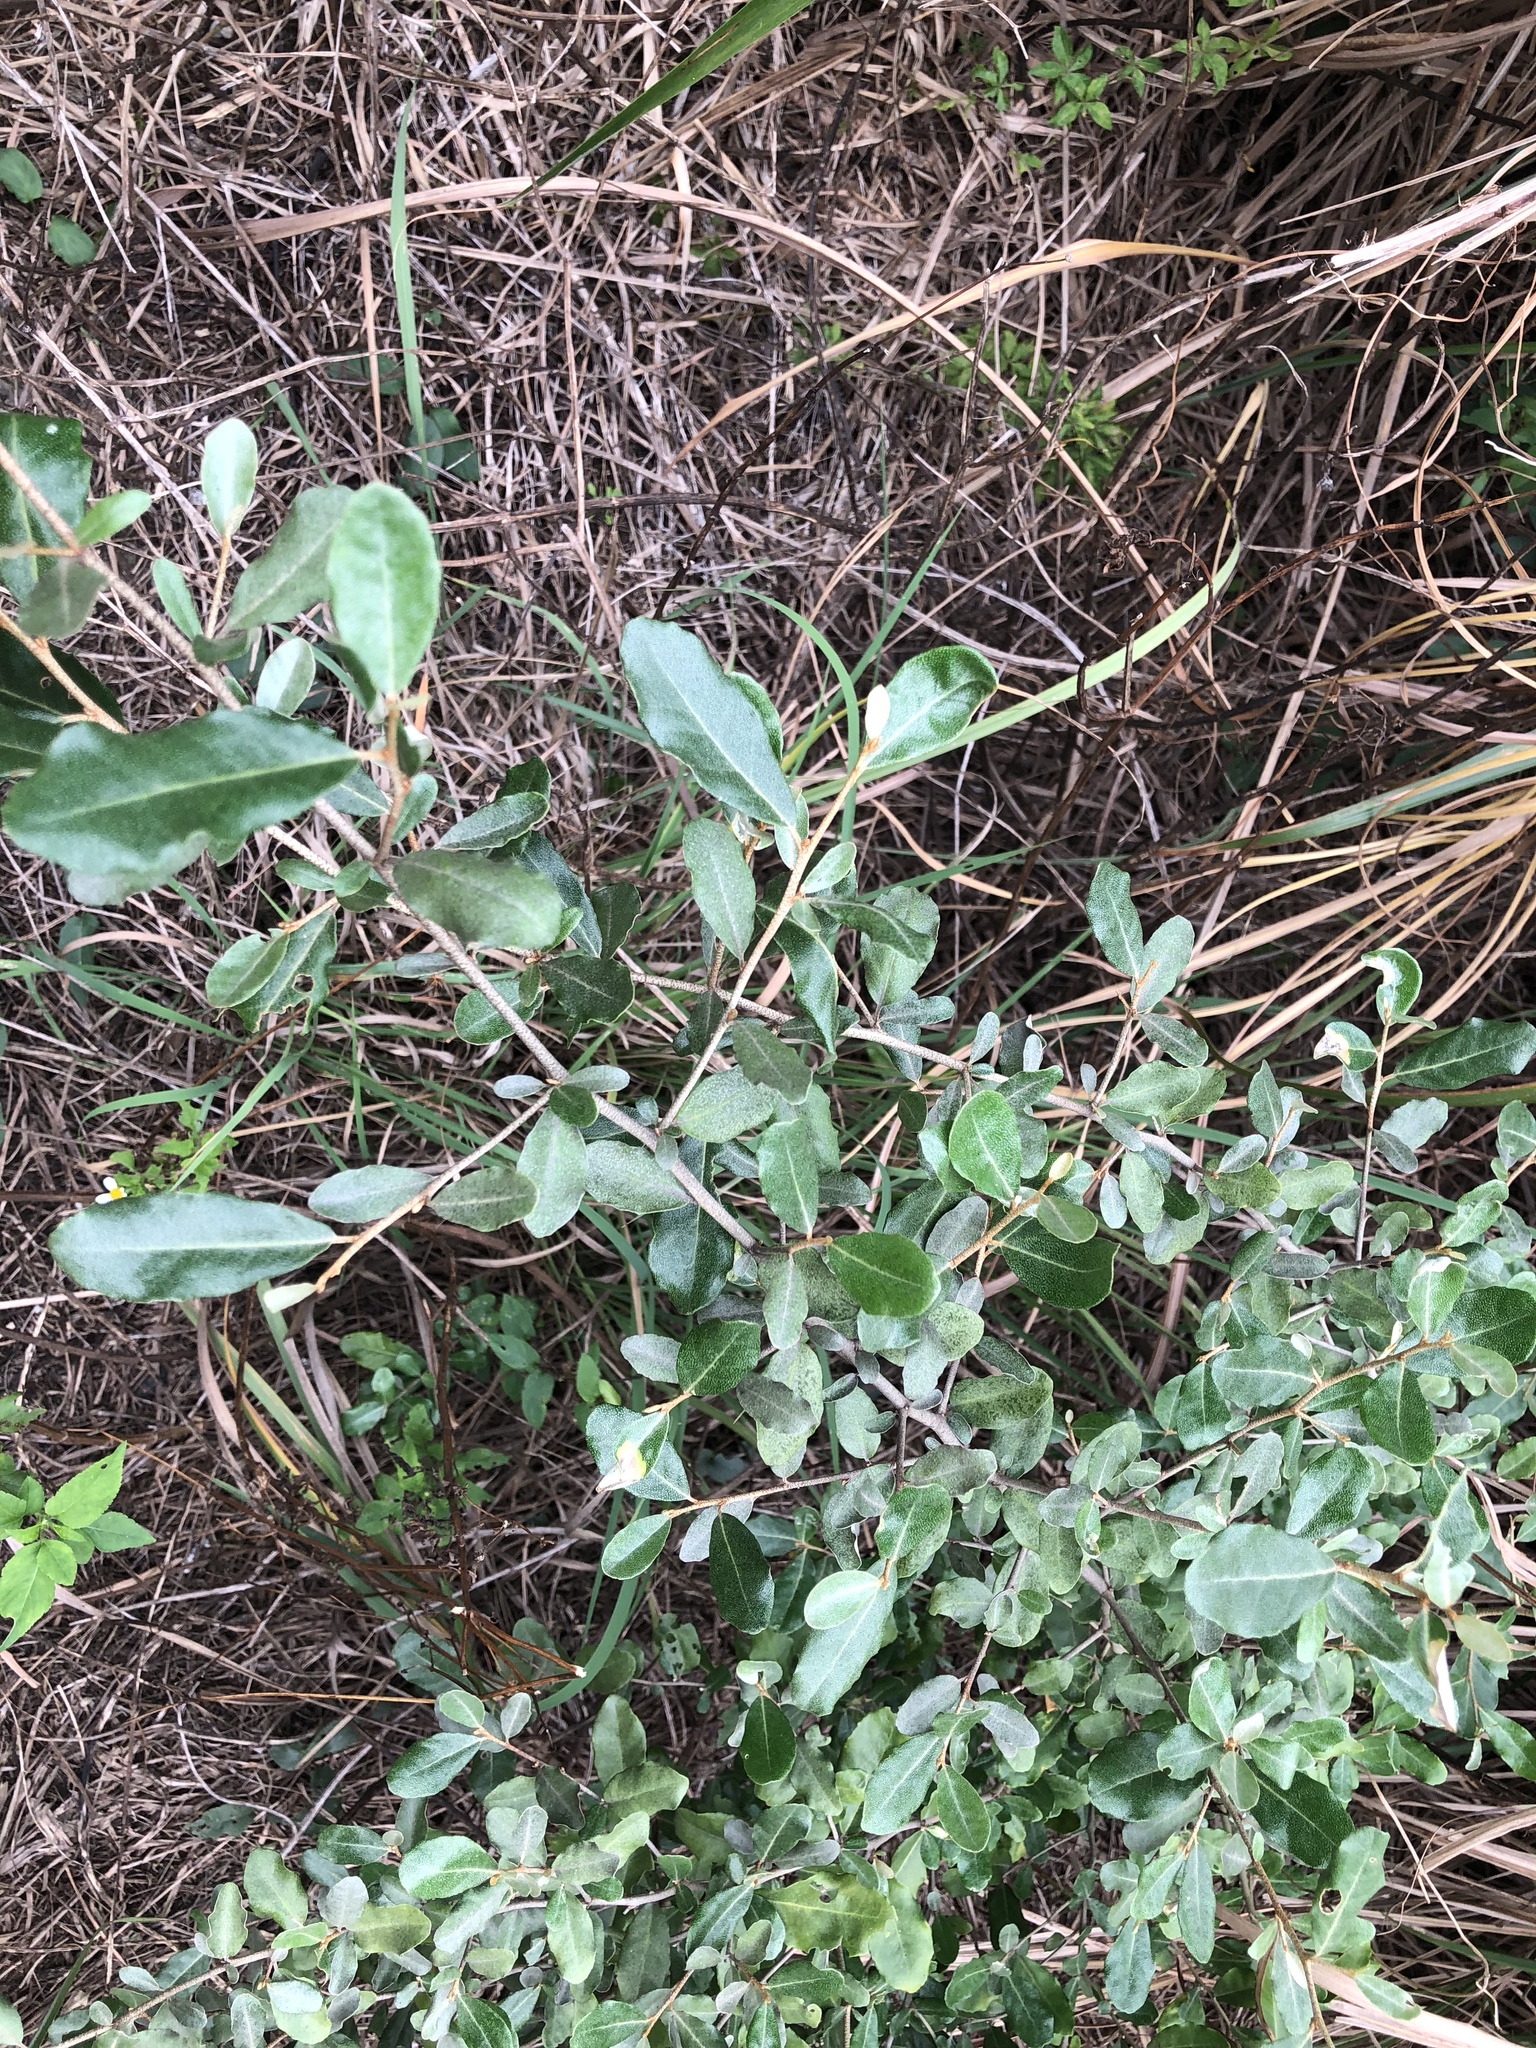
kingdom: Plantae
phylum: Tracheophyta
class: Magnoliopsida
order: Rosales
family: Elaeagnaceae
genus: Elaeagnus
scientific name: Elaeagnus oldhamii
